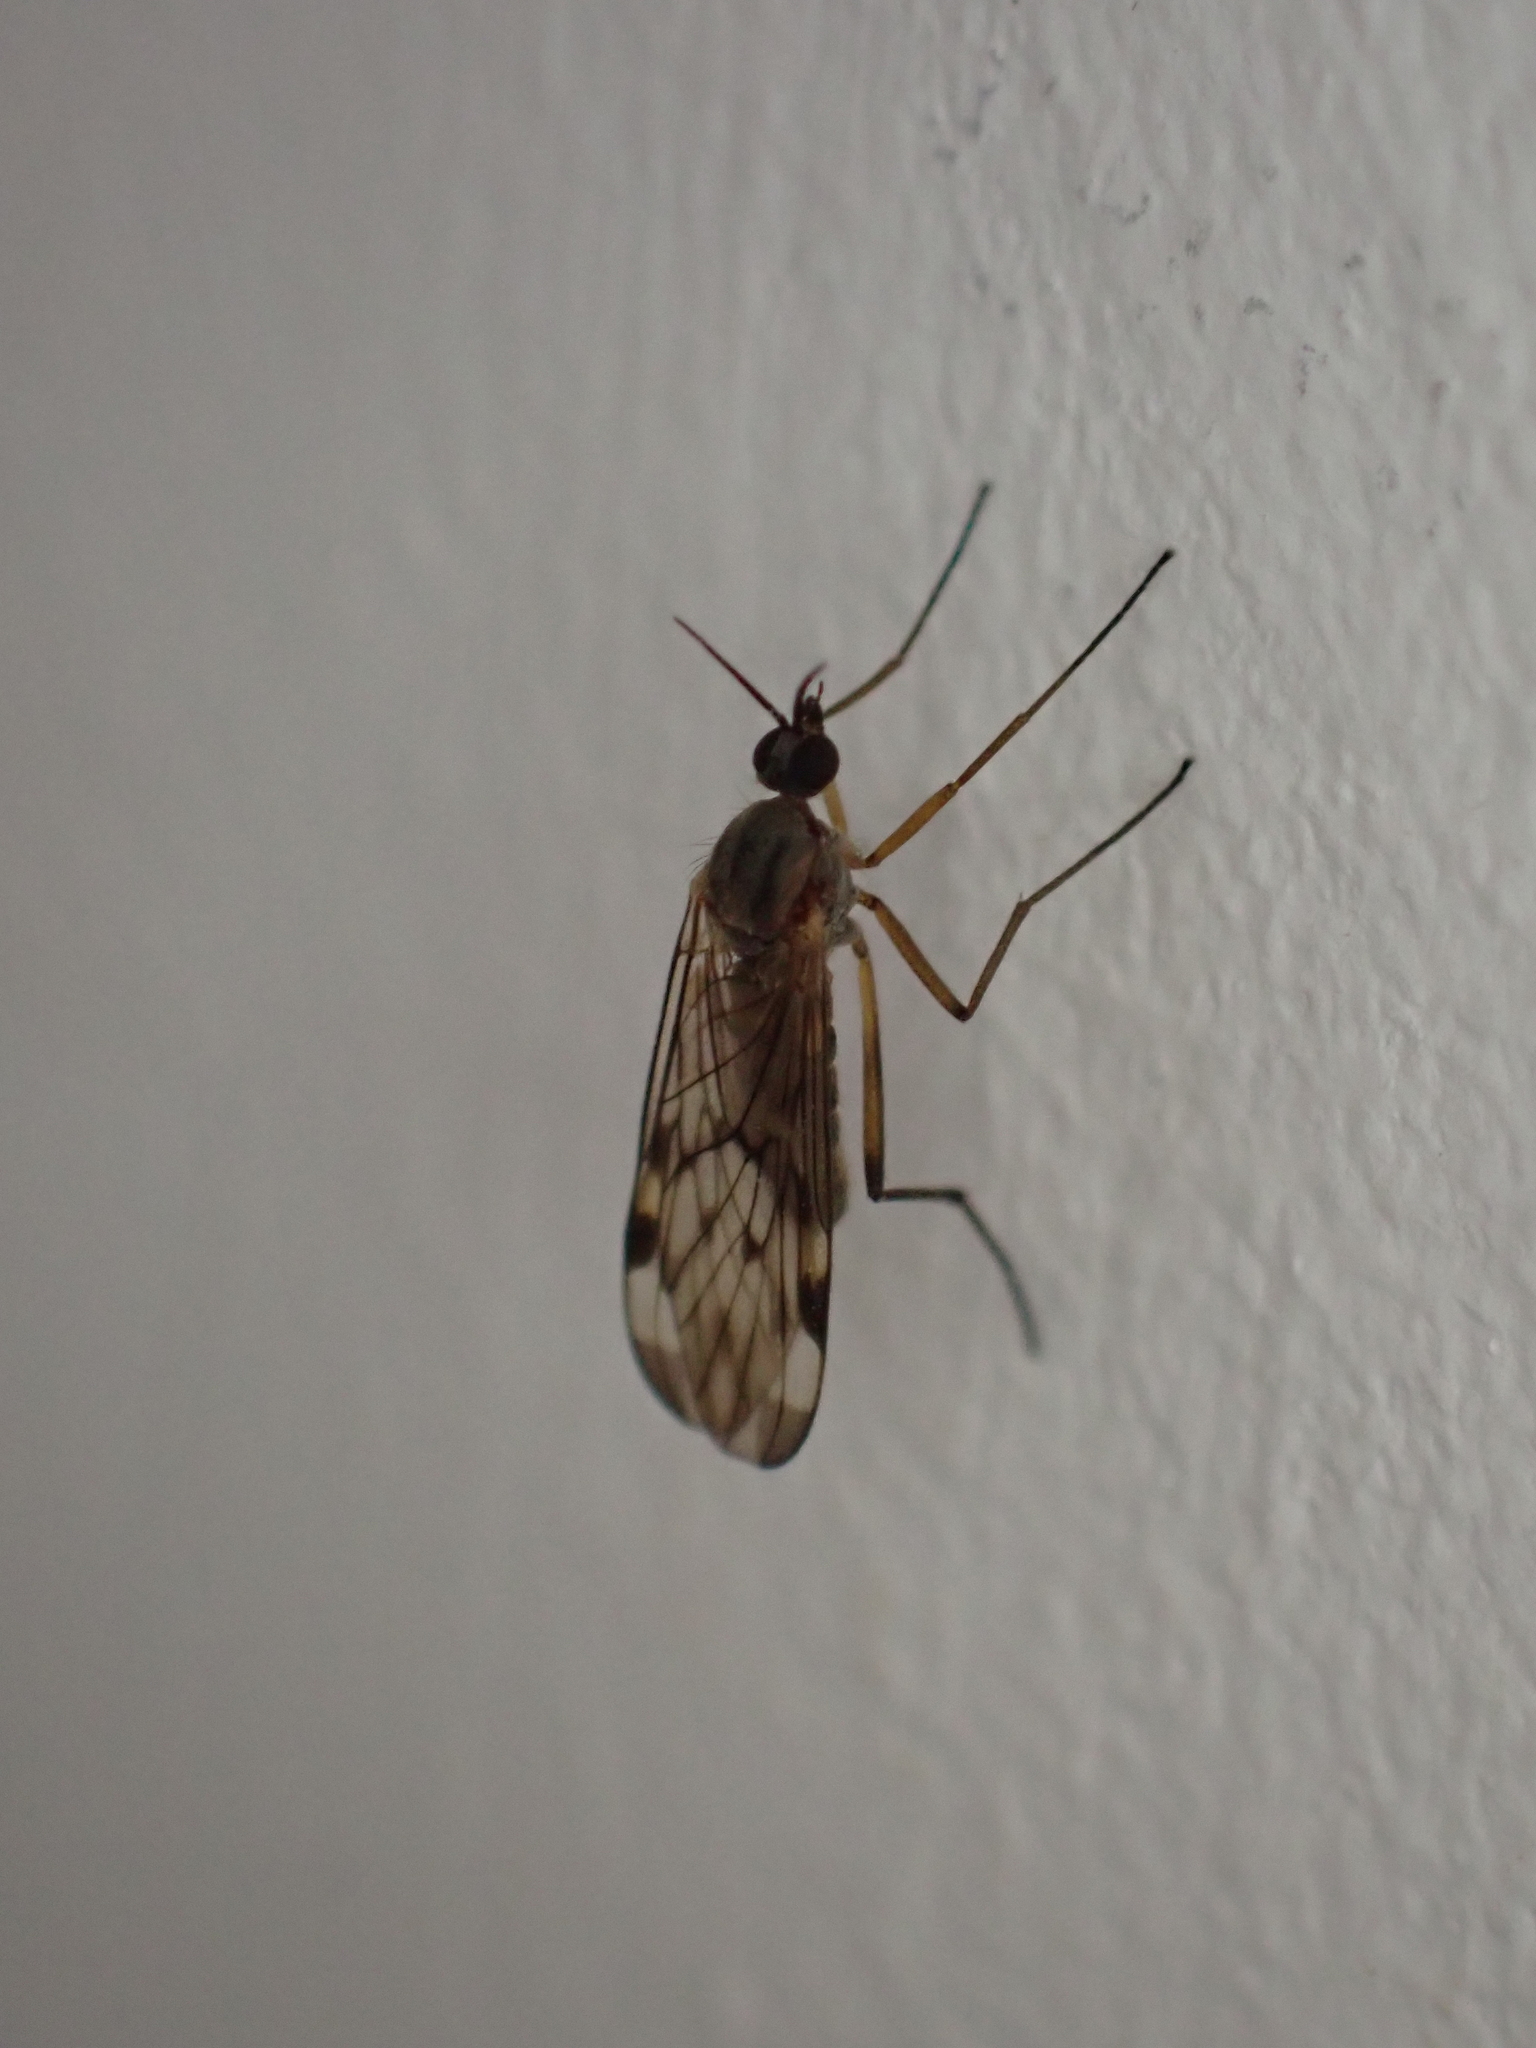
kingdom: Animalia
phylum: Arthropoda
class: Insecta
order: Diptera
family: Anisopodidae
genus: Sylvicola
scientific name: Sylvicola
